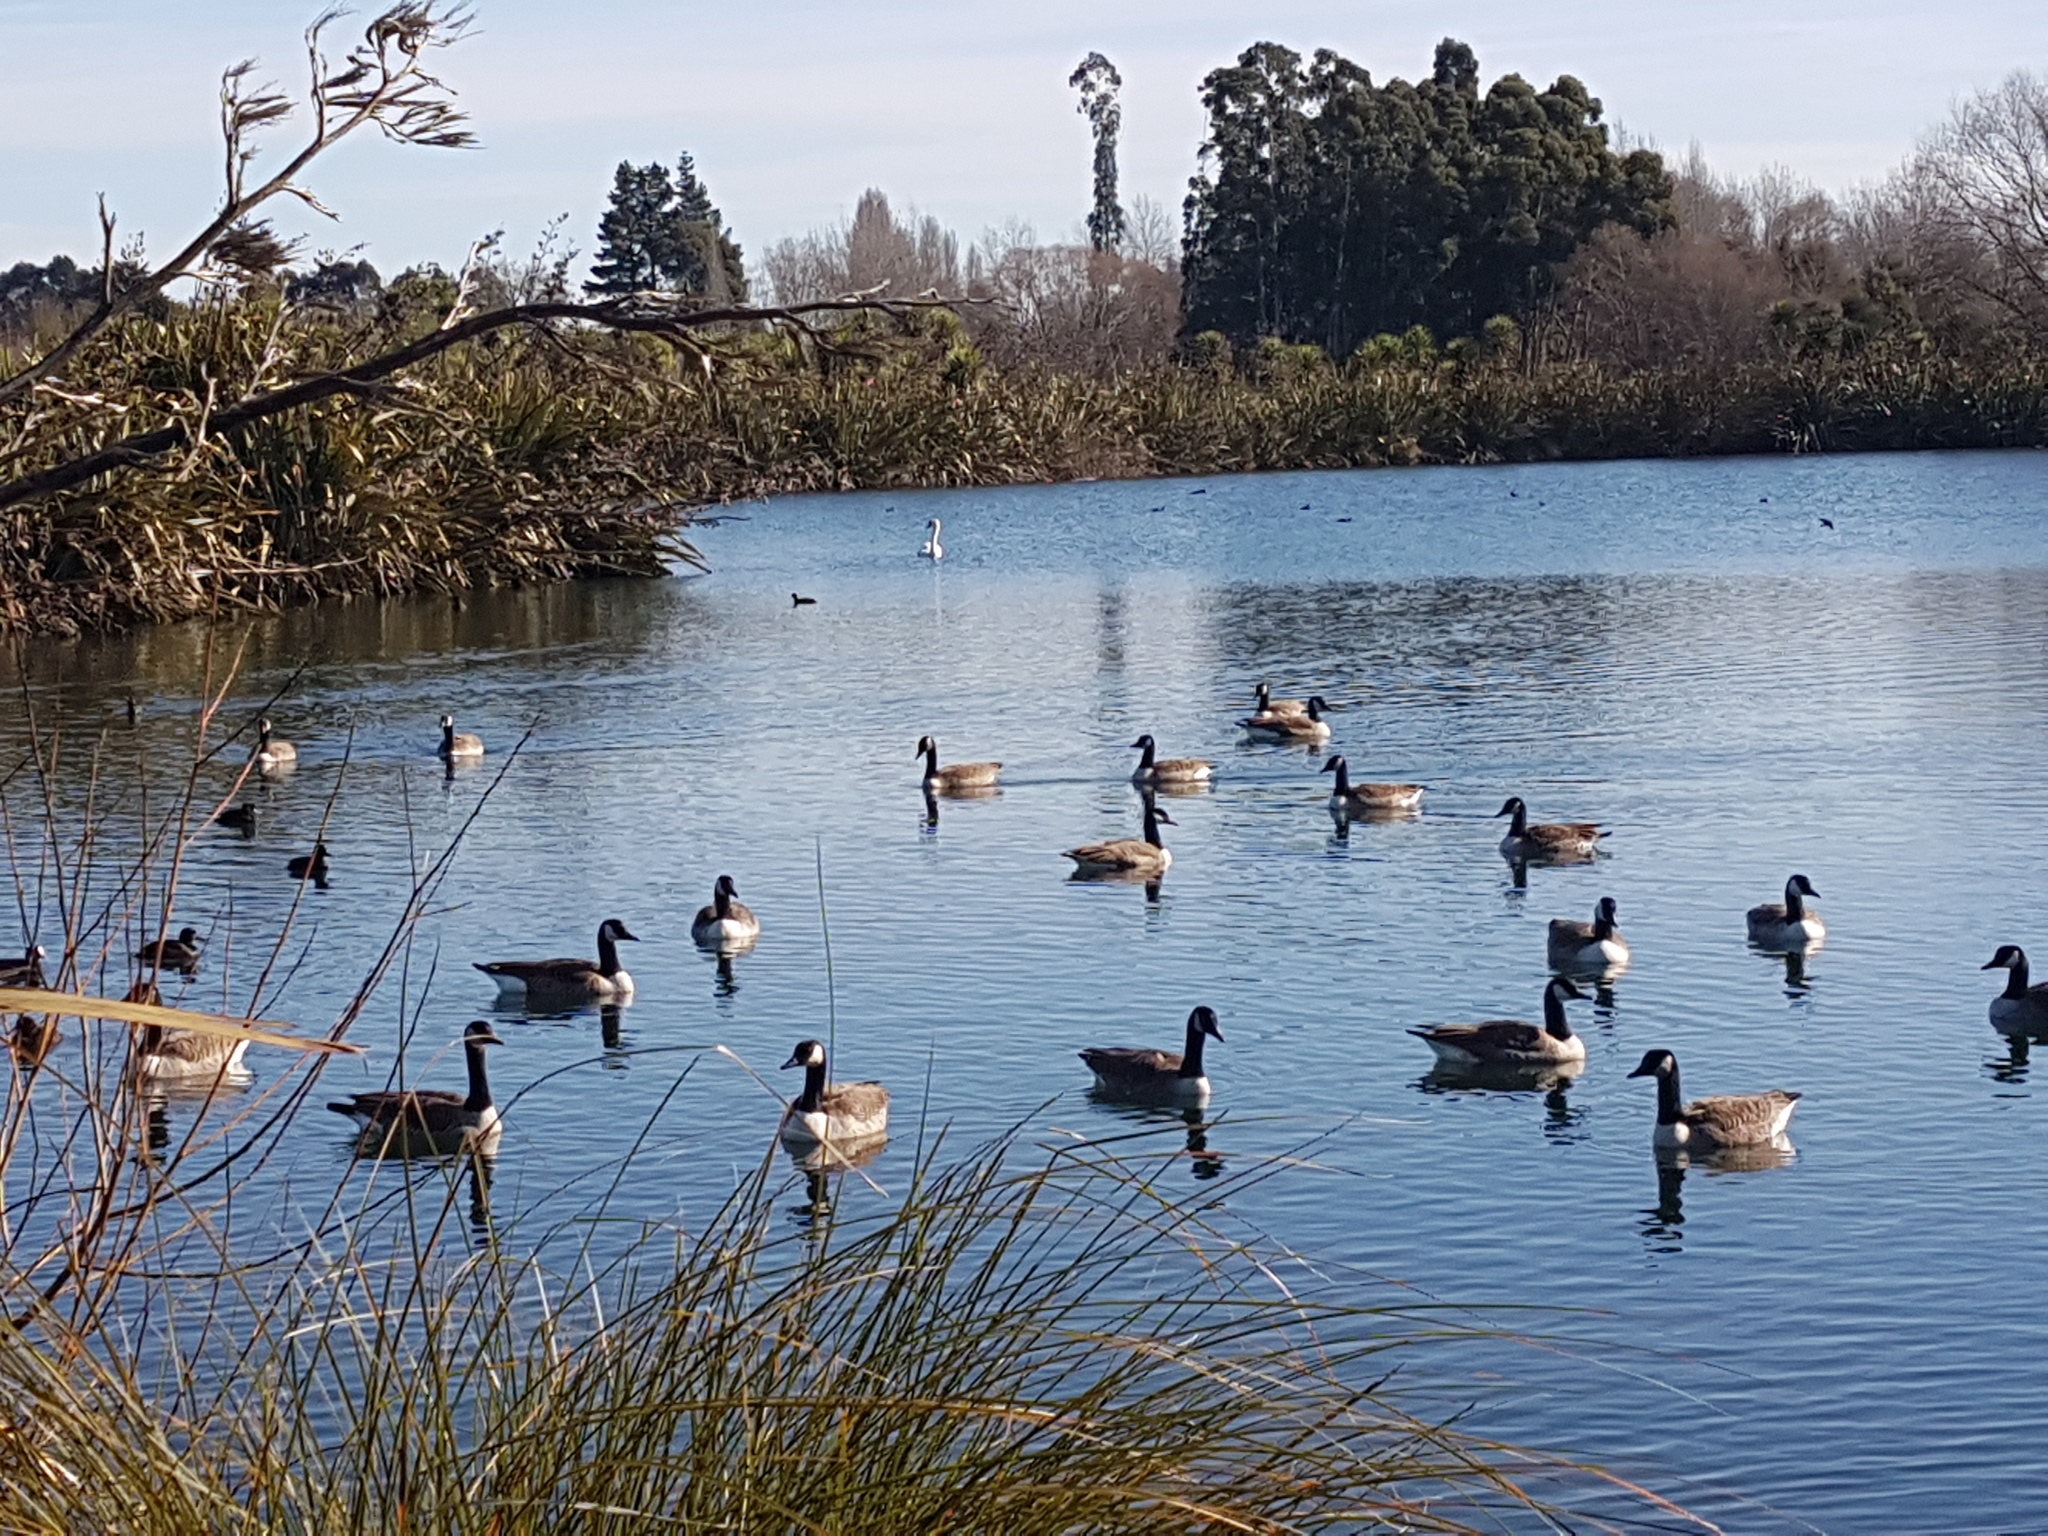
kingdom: Animalia
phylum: Chordata
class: Aves
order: Anseriformes
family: Anatidae
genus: Cygnus
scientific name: Cygnus olor
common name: Mute swan
